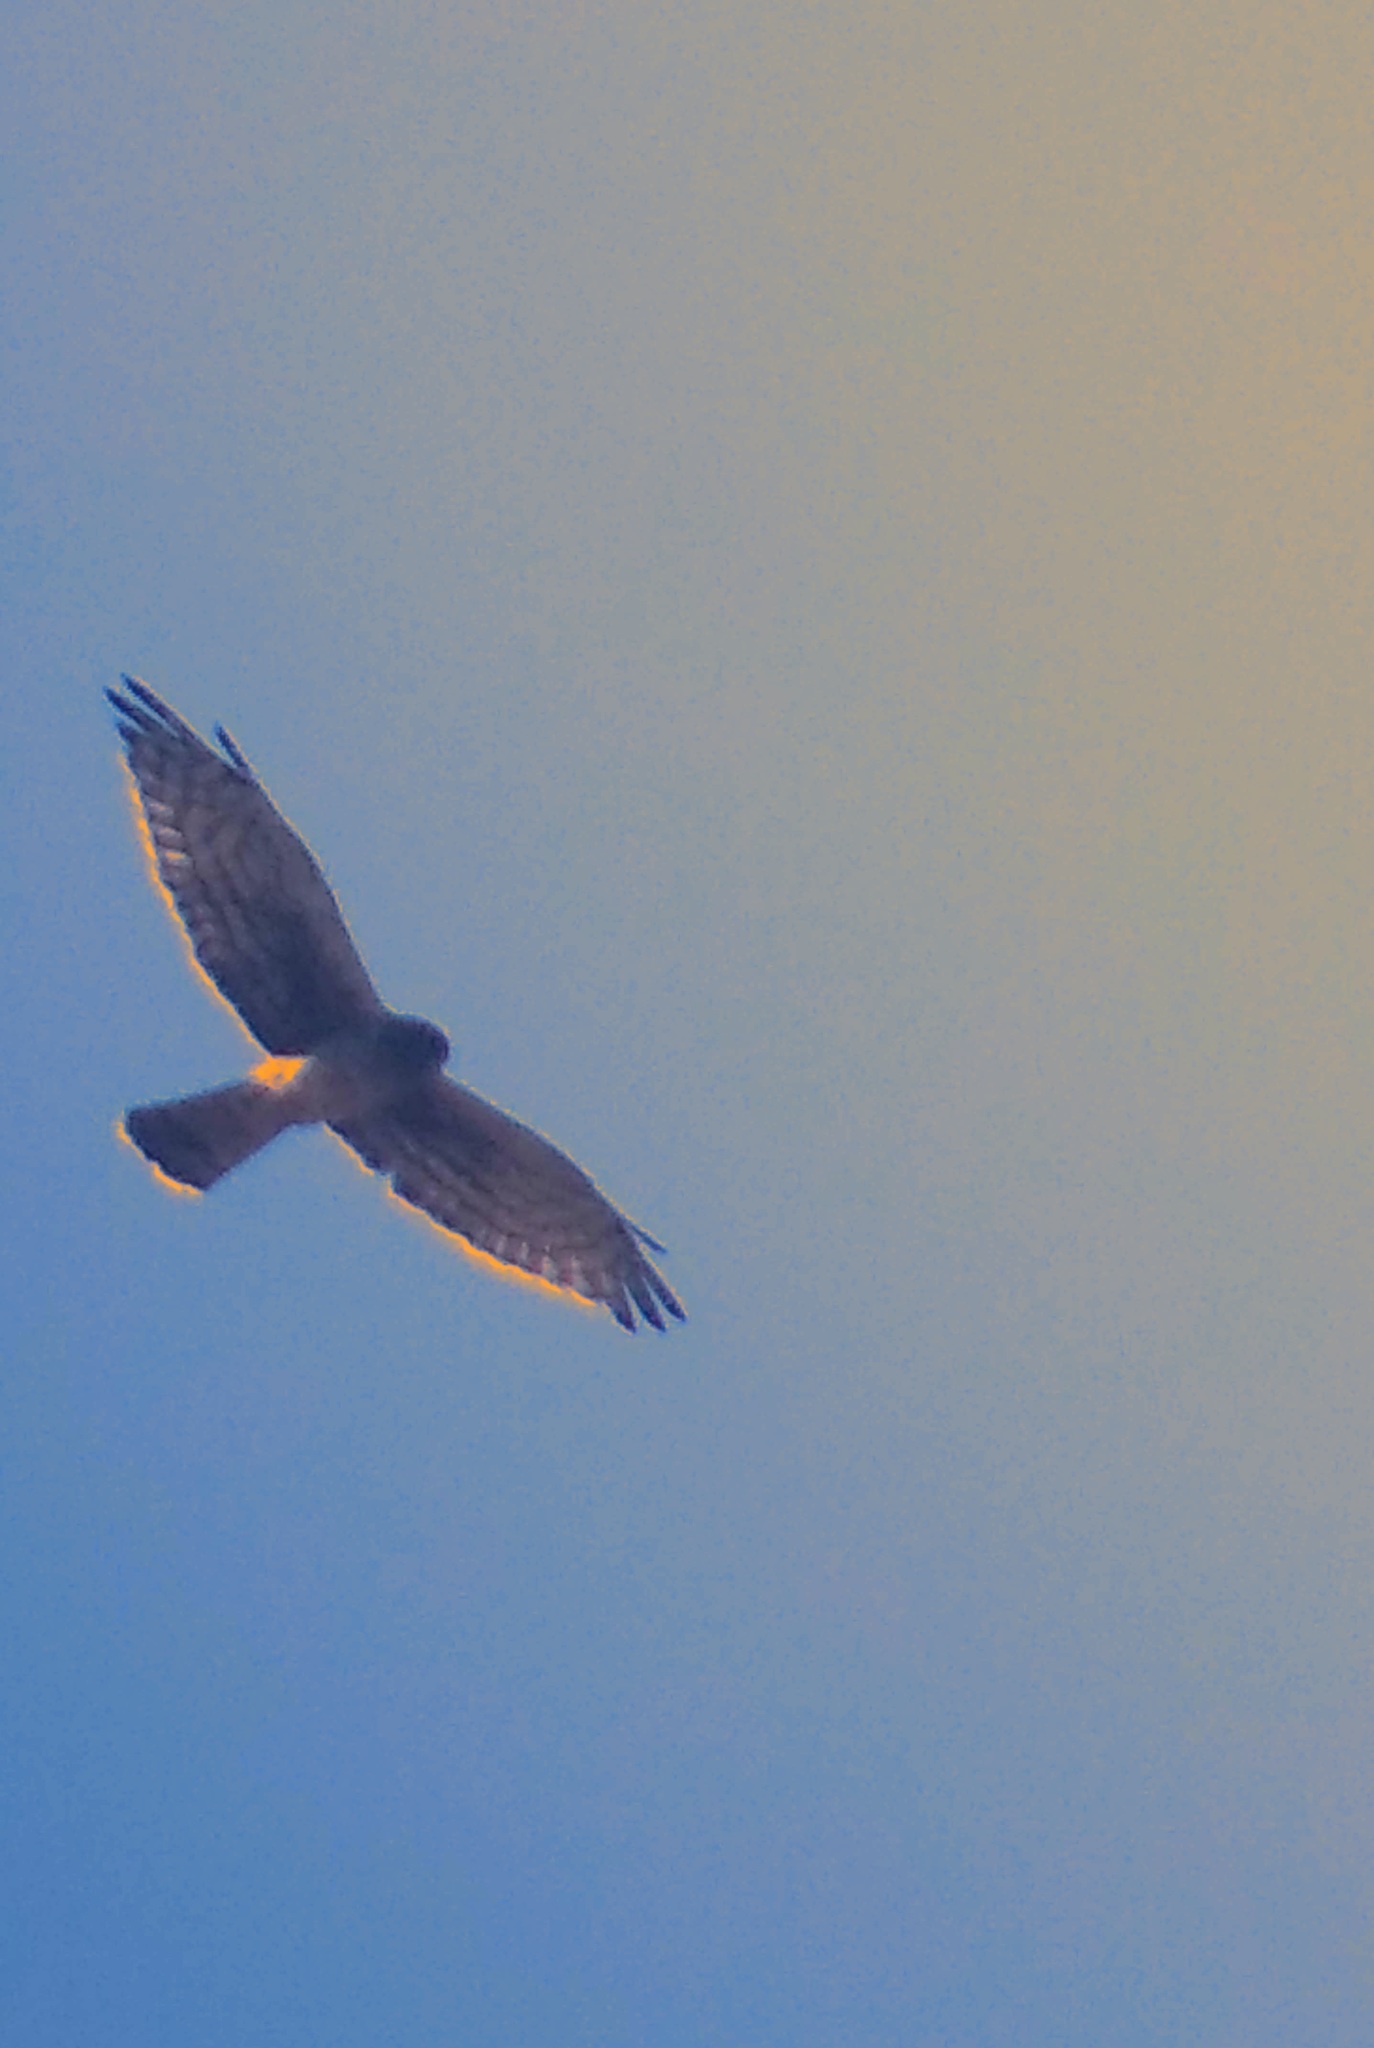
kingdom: Animalia
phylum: Chordata
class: Aves
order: Accipitriformes
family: Accipitridae
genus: Circus
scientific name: Circus cyaneus
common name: Hen harrier
